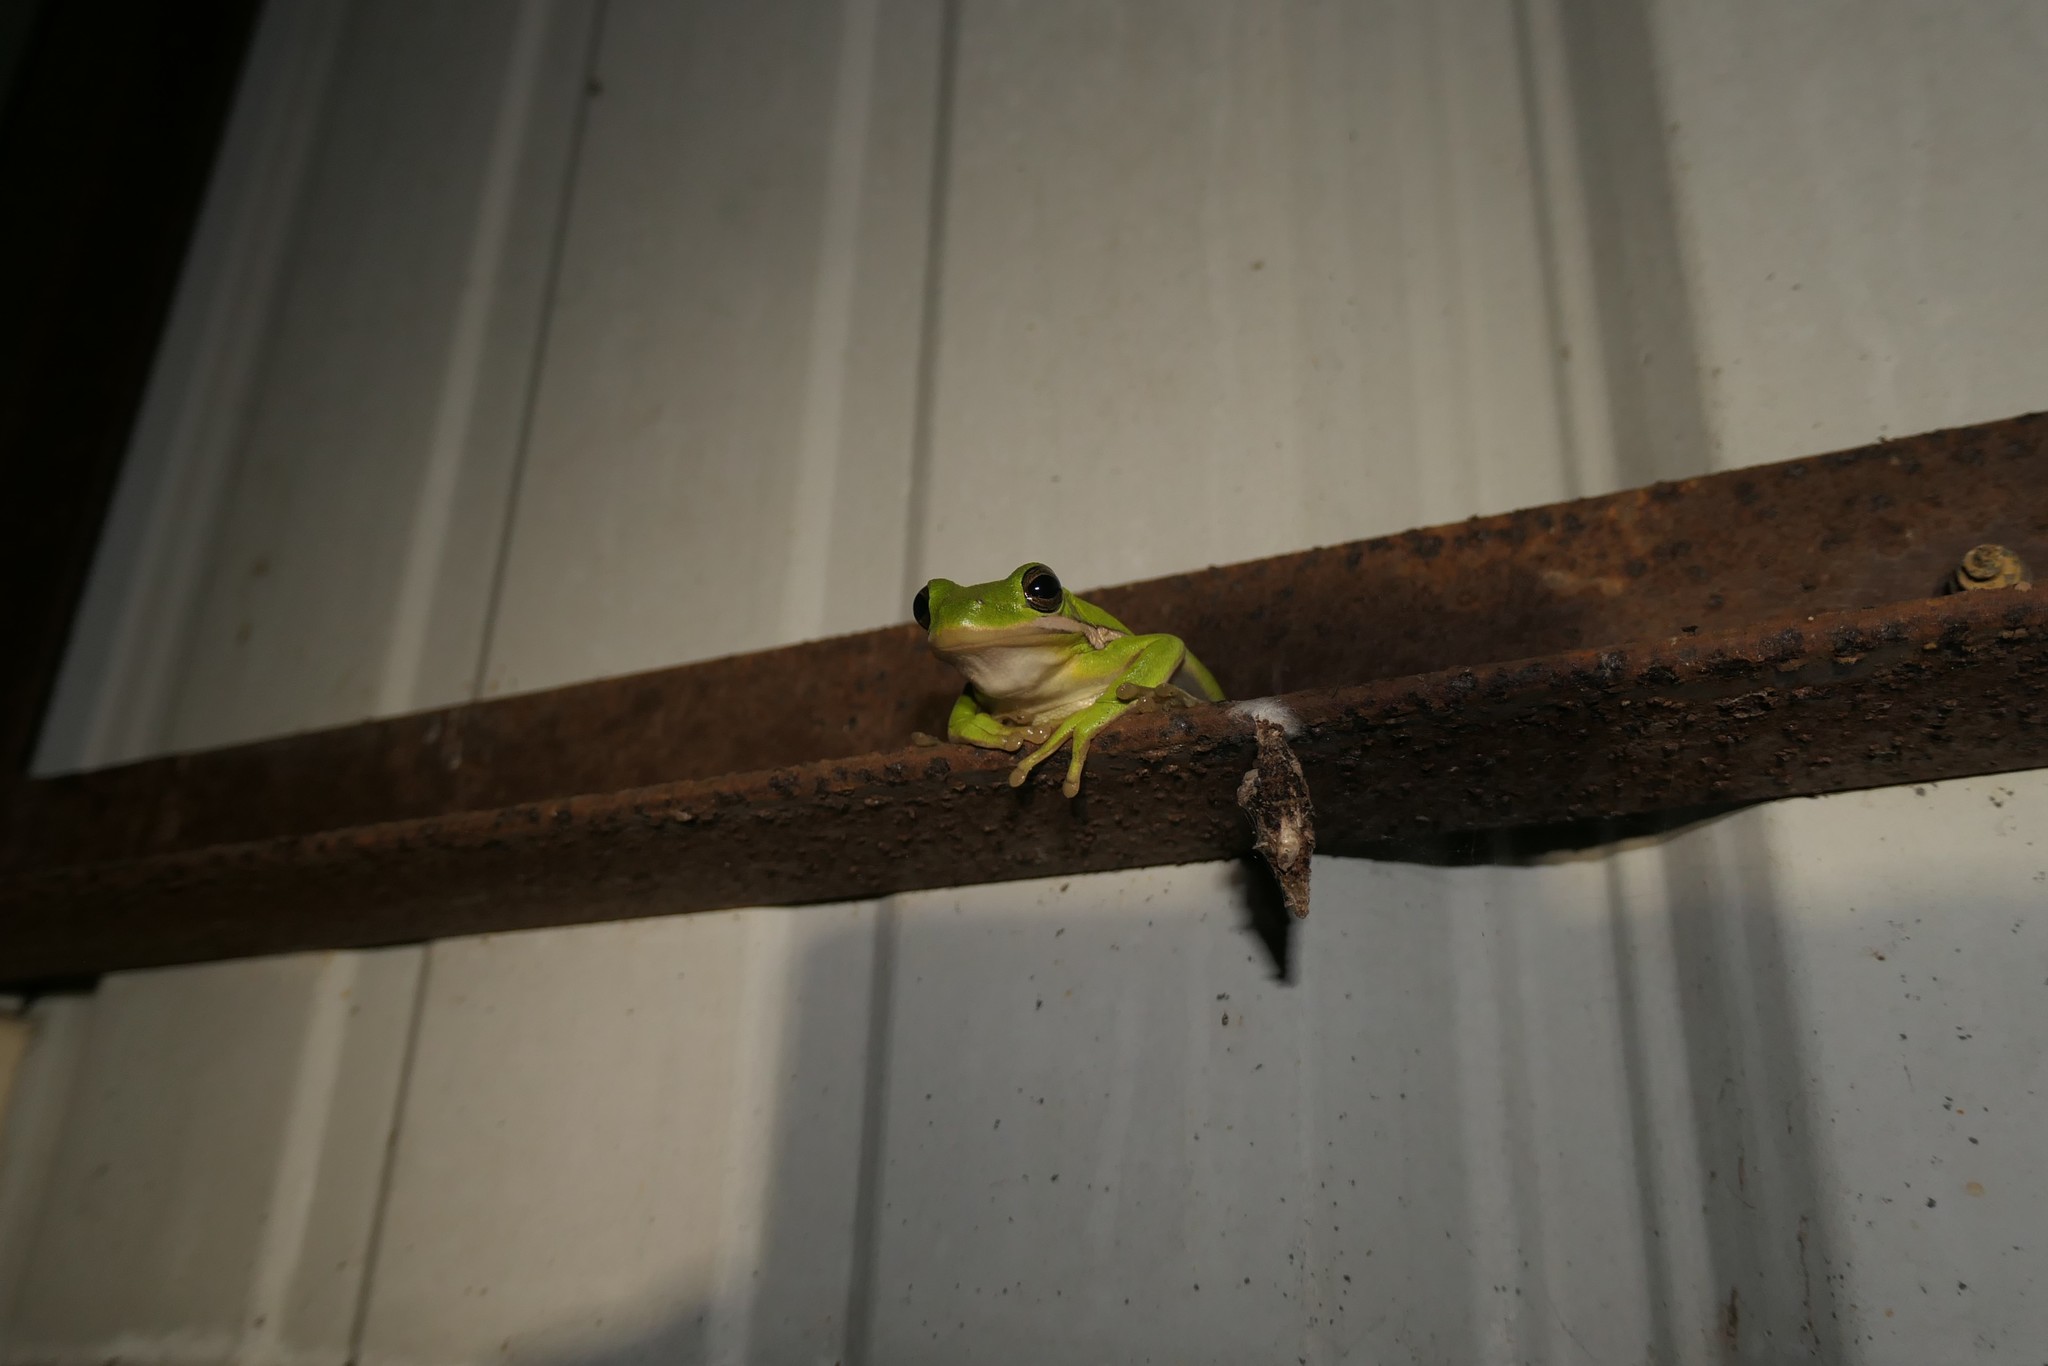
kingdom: Animalia
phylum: Chordata
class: Amphibia
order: Anura
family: Hylidae
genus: Dryophytes
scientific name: Dryophytes cinereus
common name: Green treefrog
